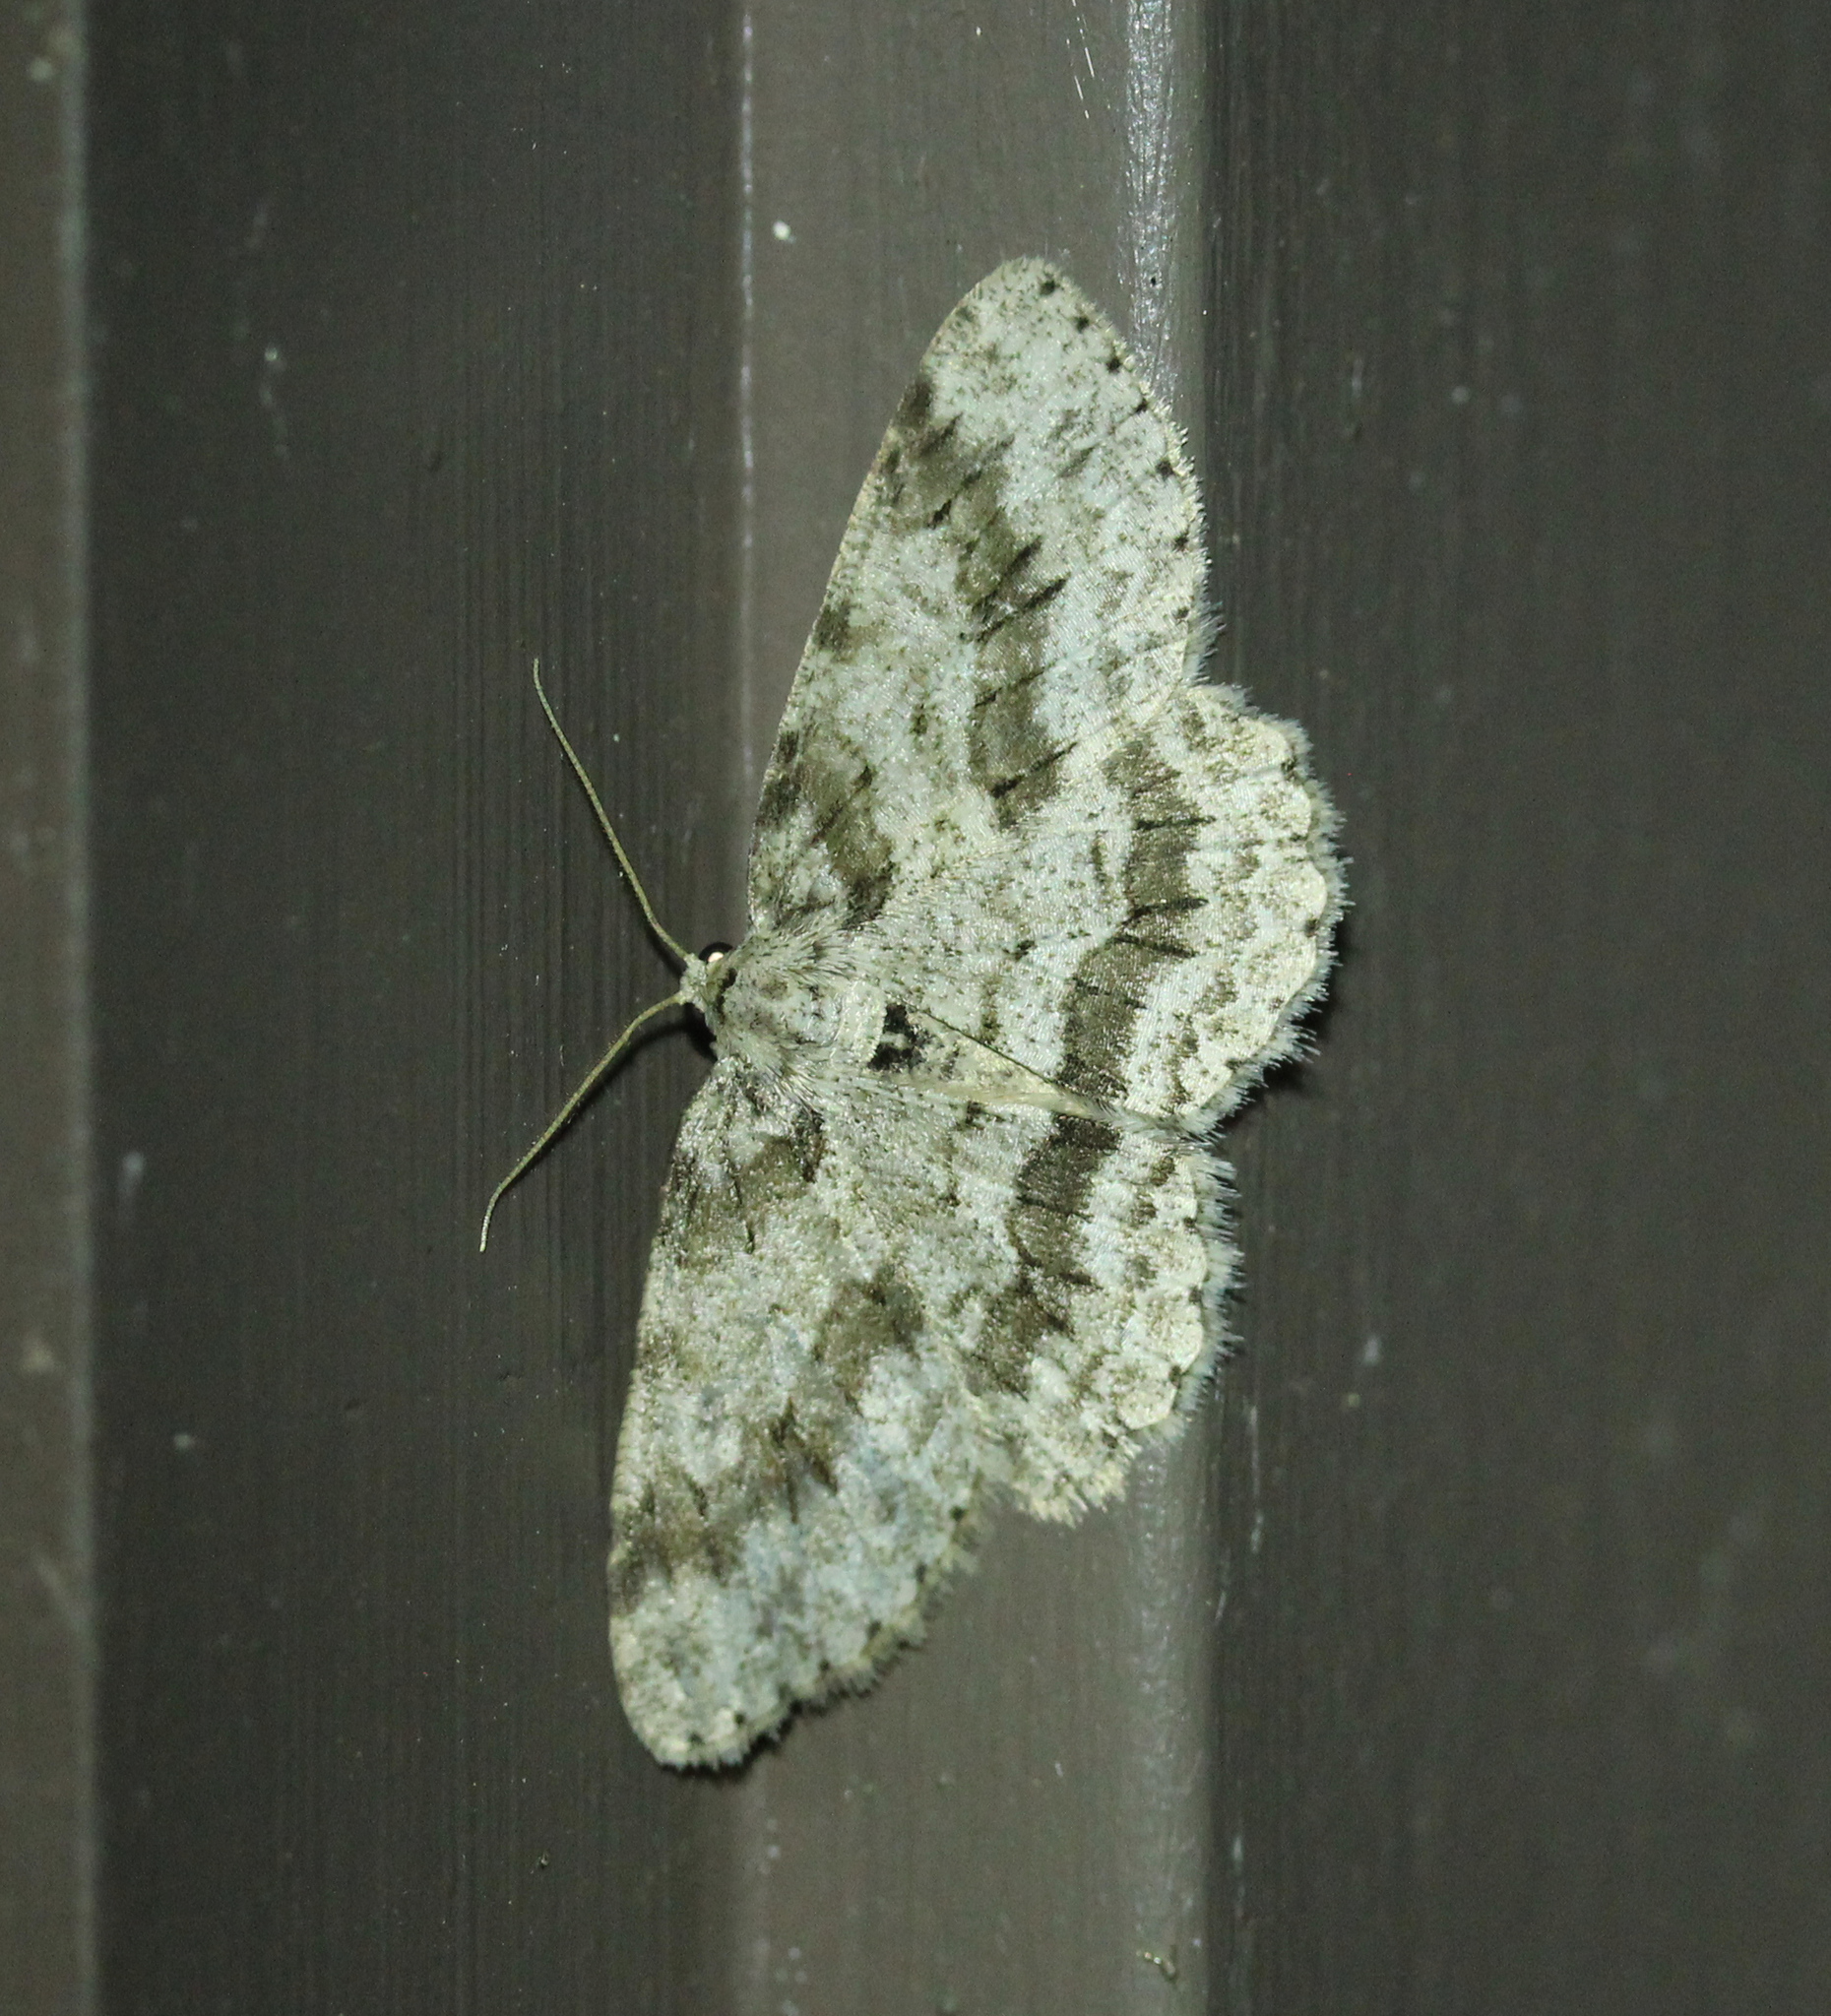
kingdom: Animalia
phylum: Arthropoda
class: Insecta
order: Lepidoptera
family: Geometridae
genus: Ectropis
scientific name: Ectropis crepuscularia
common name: Engrailed
